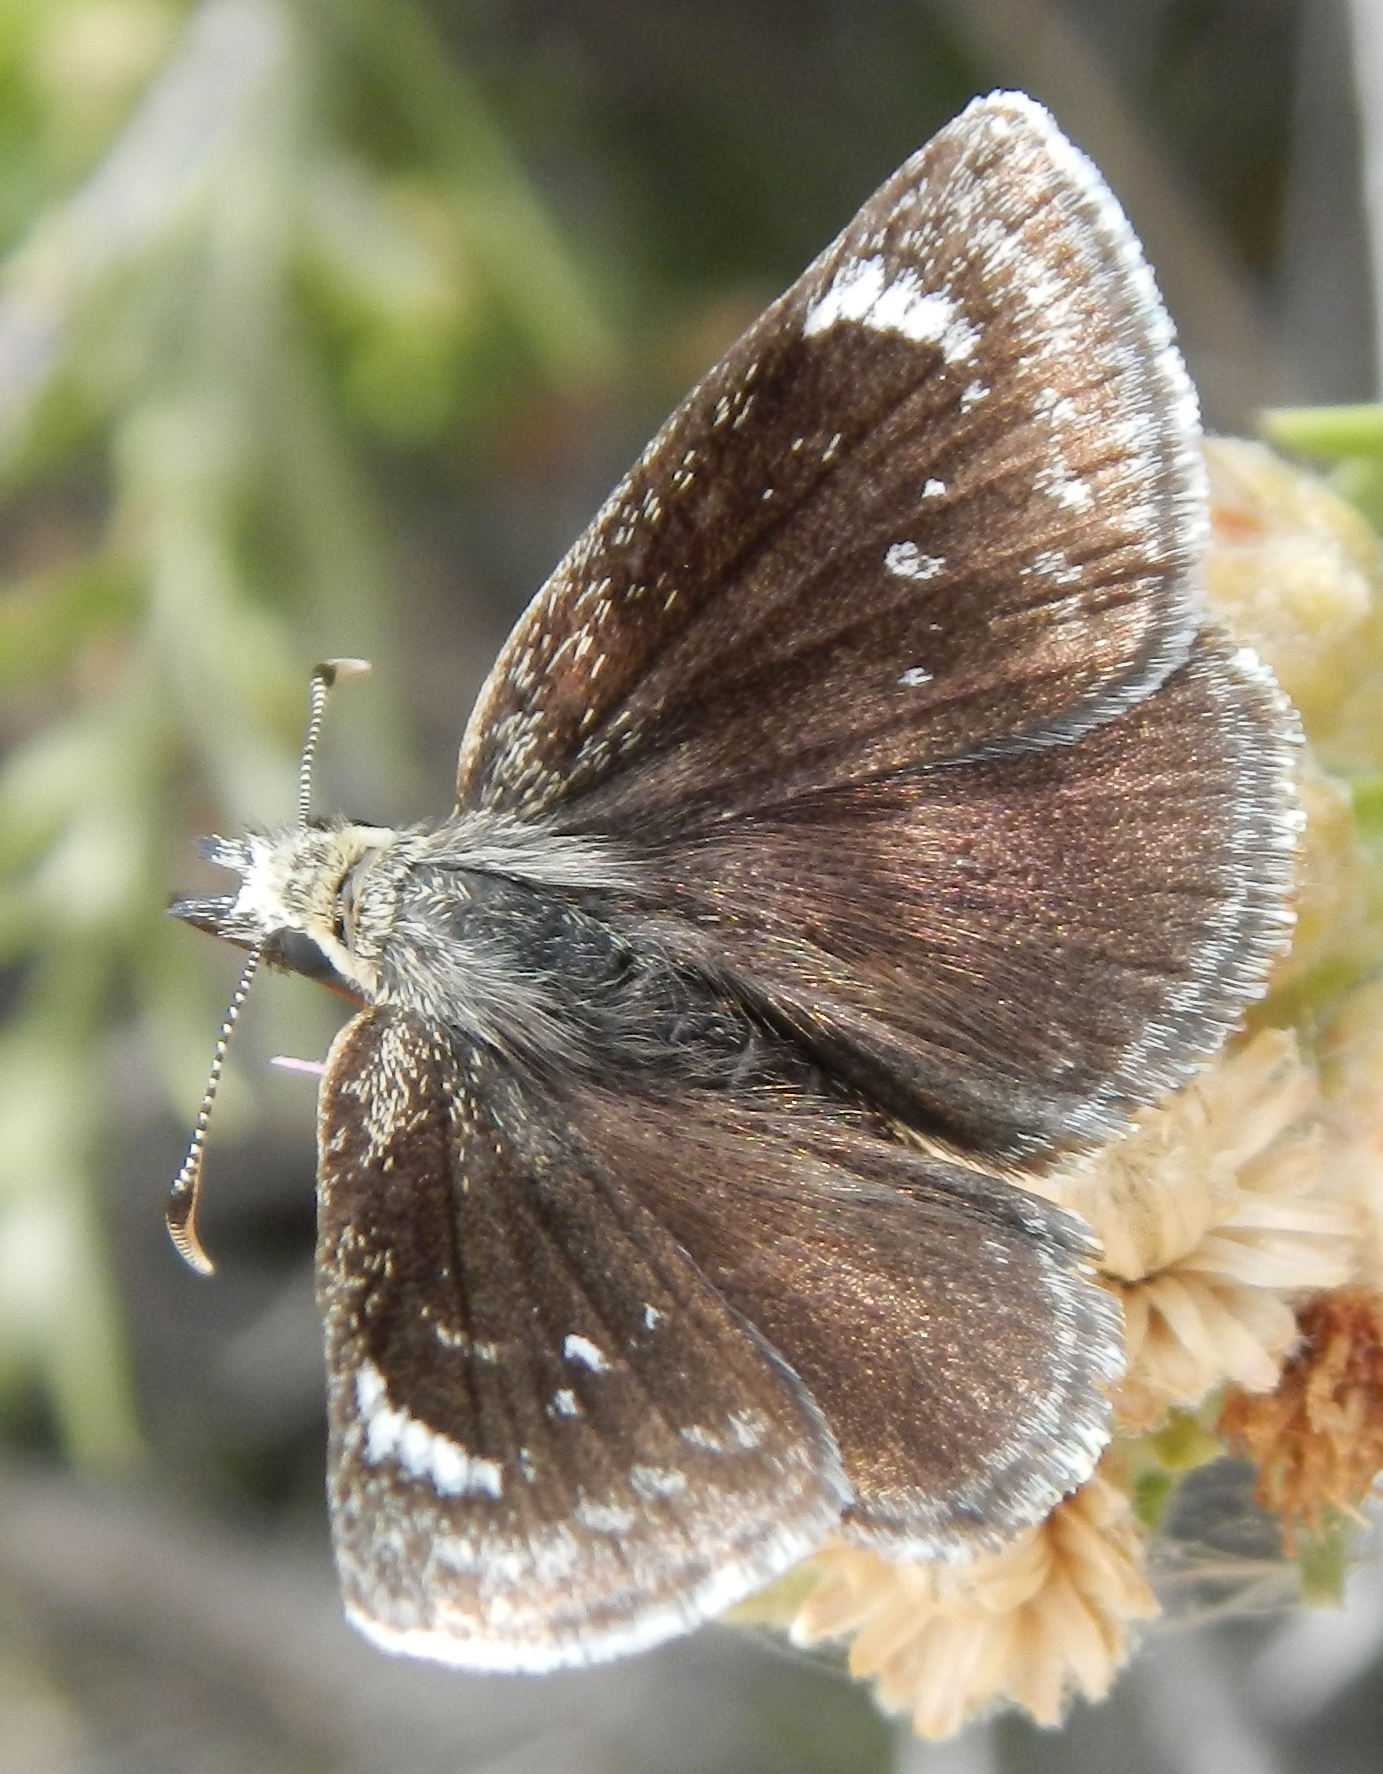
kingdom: Animalia
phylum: Arthropoda
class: Insecta
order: Lepidoptera
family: Hesperiidae
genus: Pholisora
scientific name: Pholisora libya
